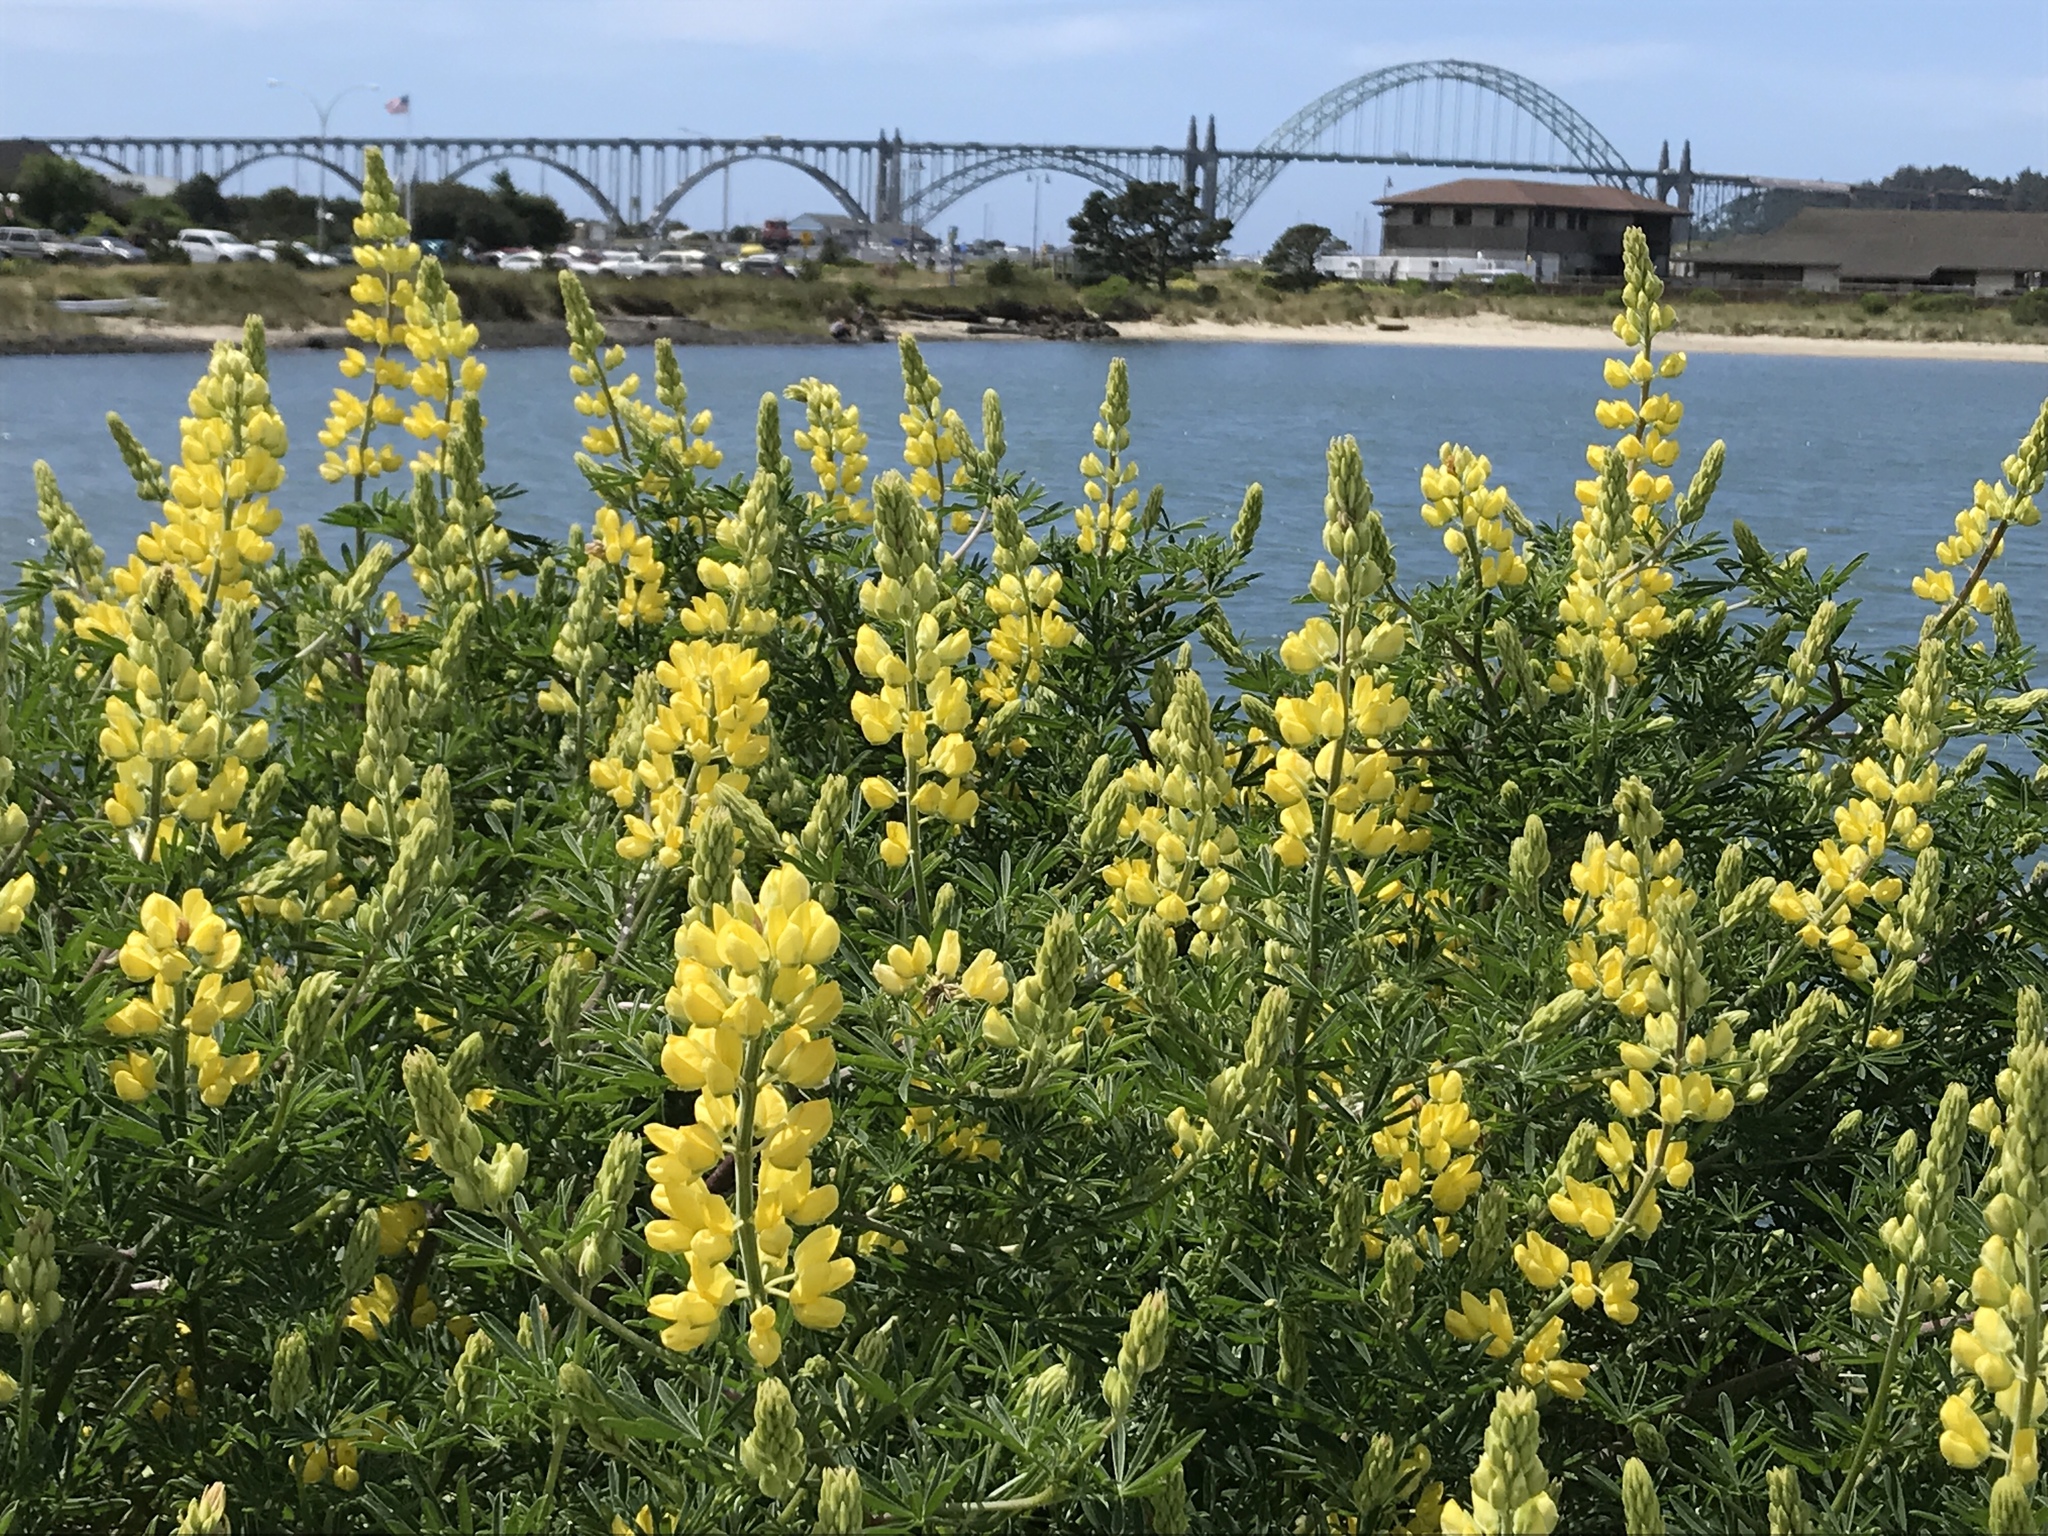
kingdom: Plantae
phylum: Tracheophyta
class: Magnoliopsida
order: Fabales
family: Fabaceae
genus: Lupinus
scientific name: Lupinus arboreus
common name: Yellow bush lupine
